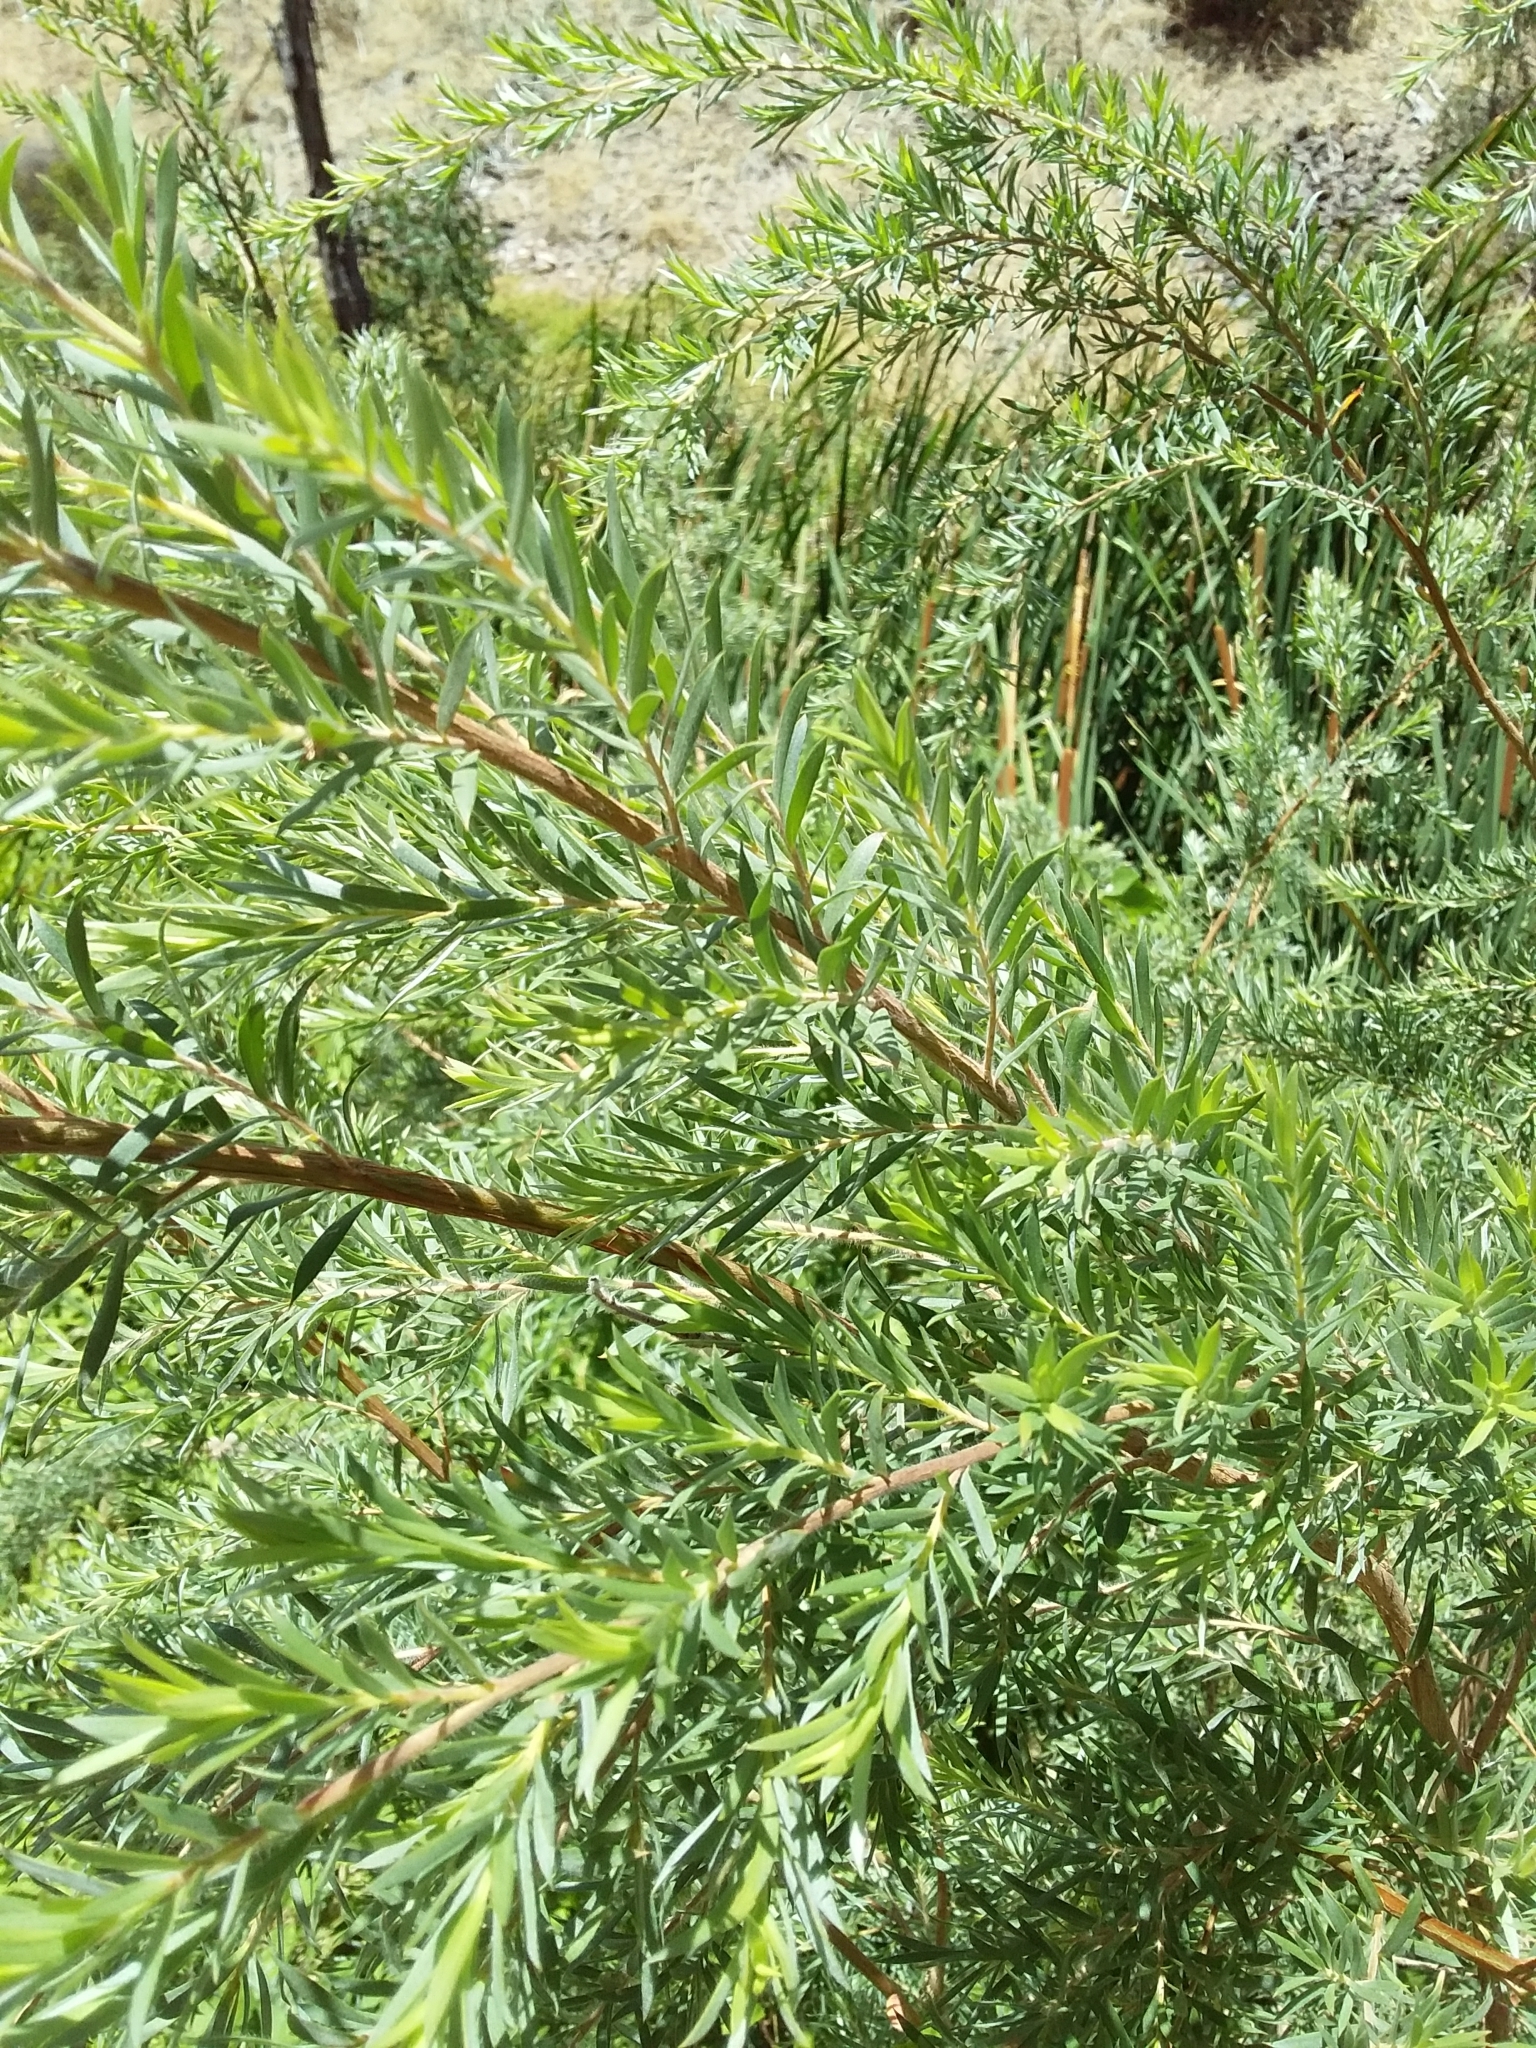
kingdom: Plantae
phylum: Tracheophyta
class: Magnoliopsida
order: Myrtales
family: Myrtaceae
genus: Leptospermum
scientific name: Leptospermum lanigerum
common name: Woolly tea-tree
